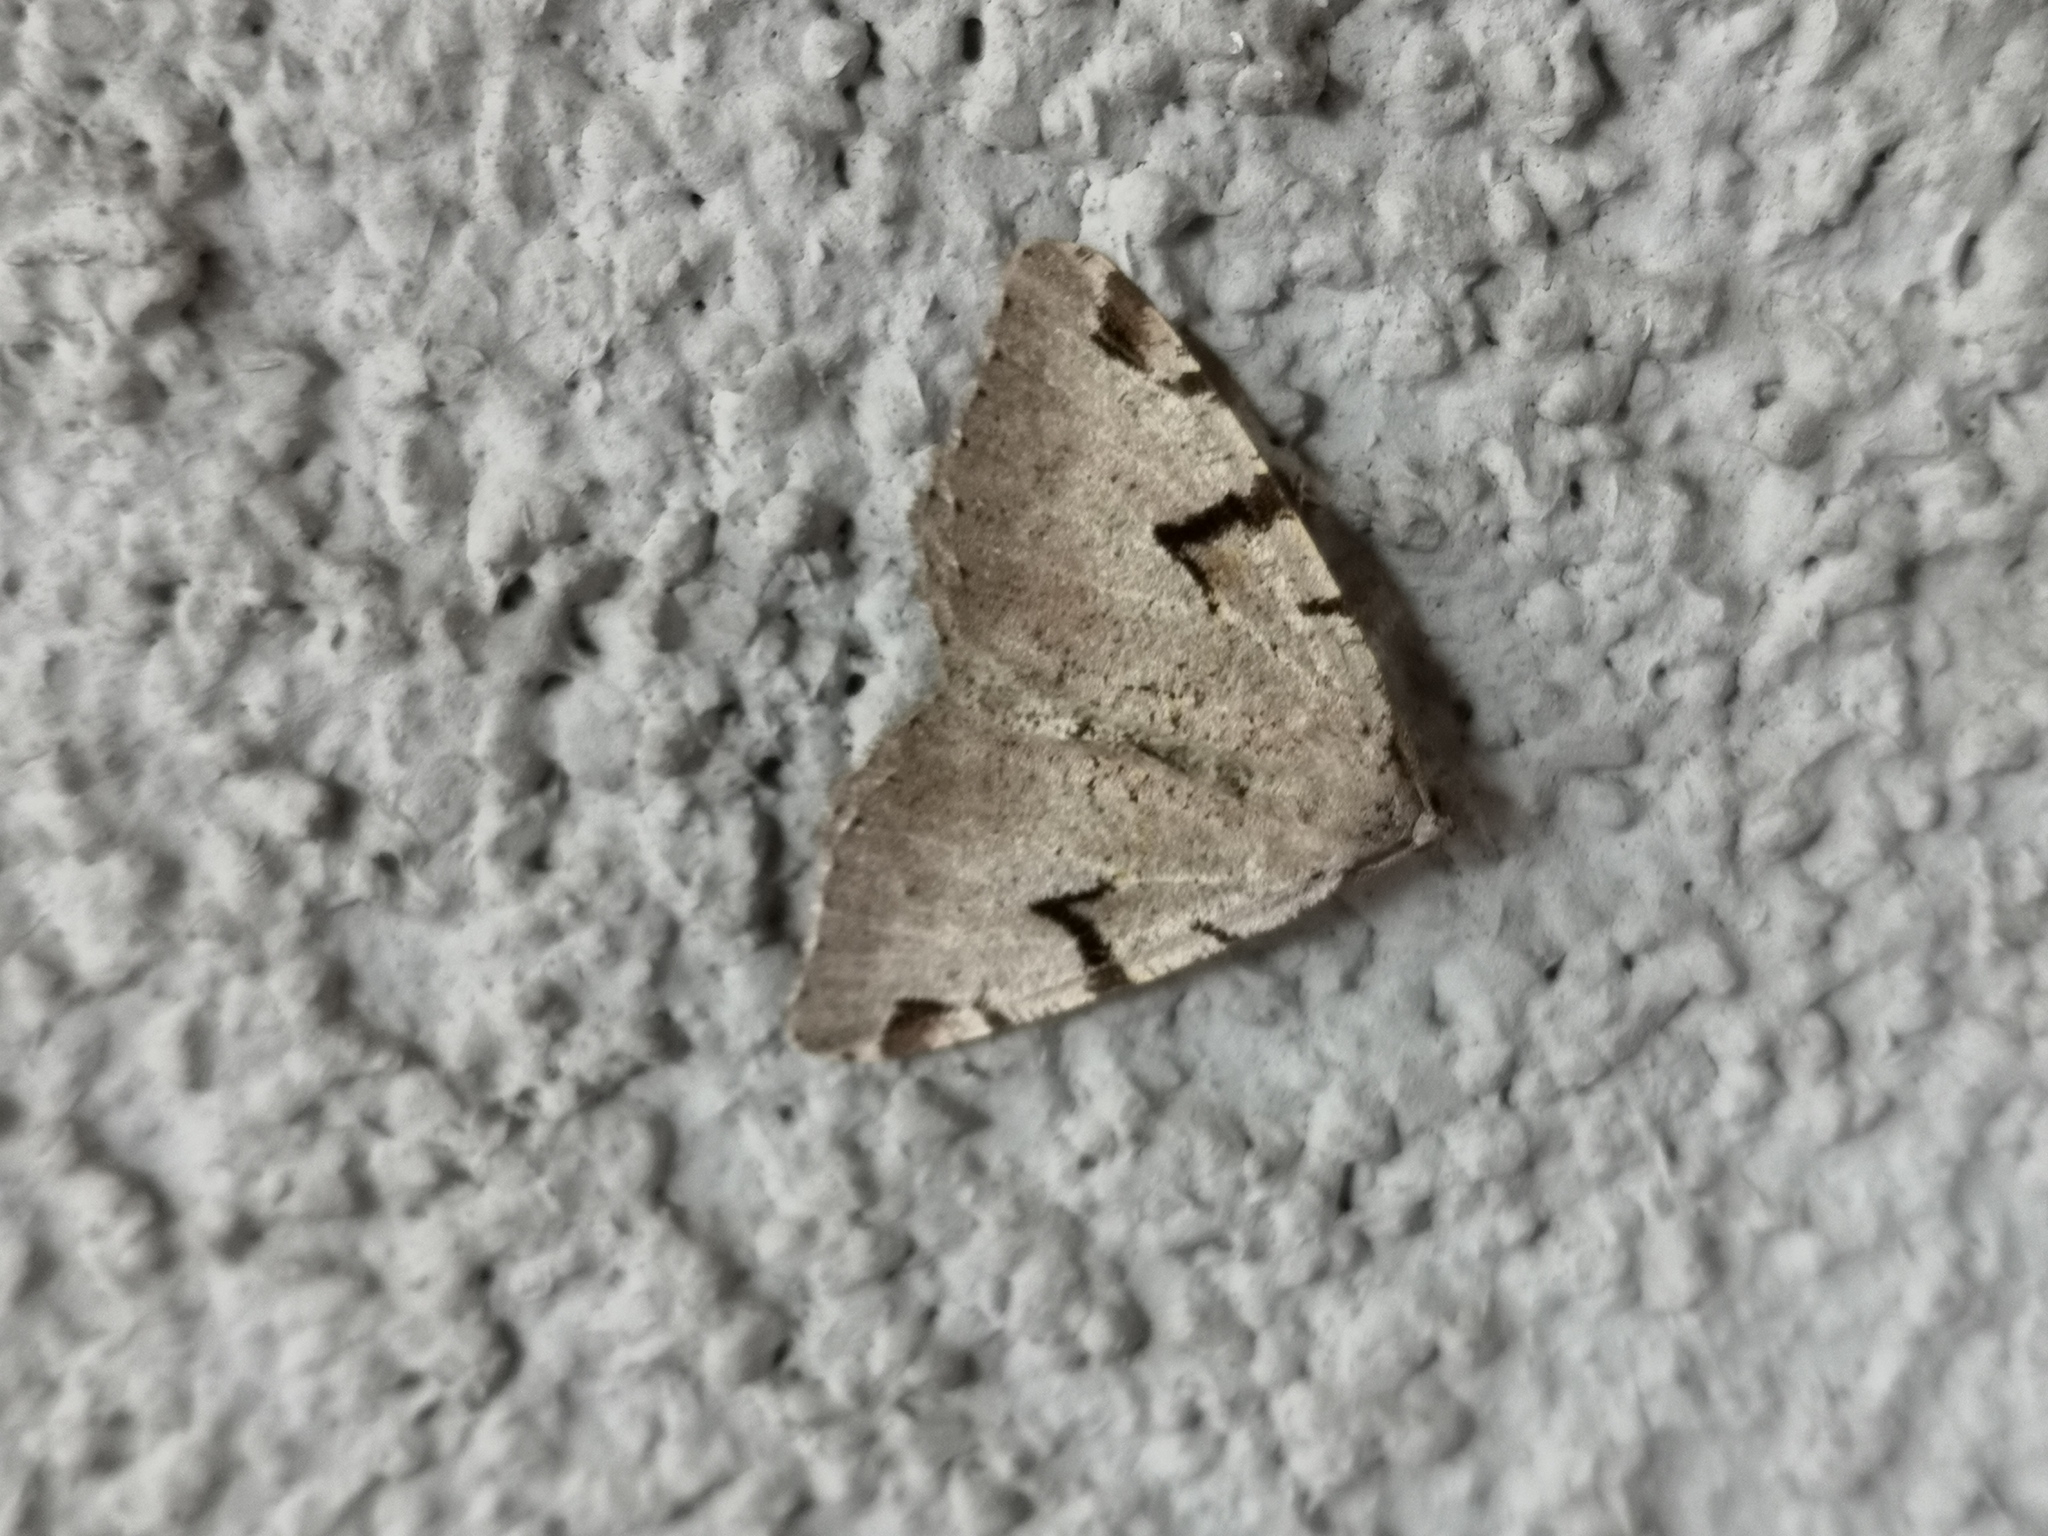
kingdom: Animalia
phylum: Arthropoda
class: Insecta
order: Lepidoptera
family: Geometridae
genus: Macaria
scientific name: Macaria wauaria
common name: V-moth
